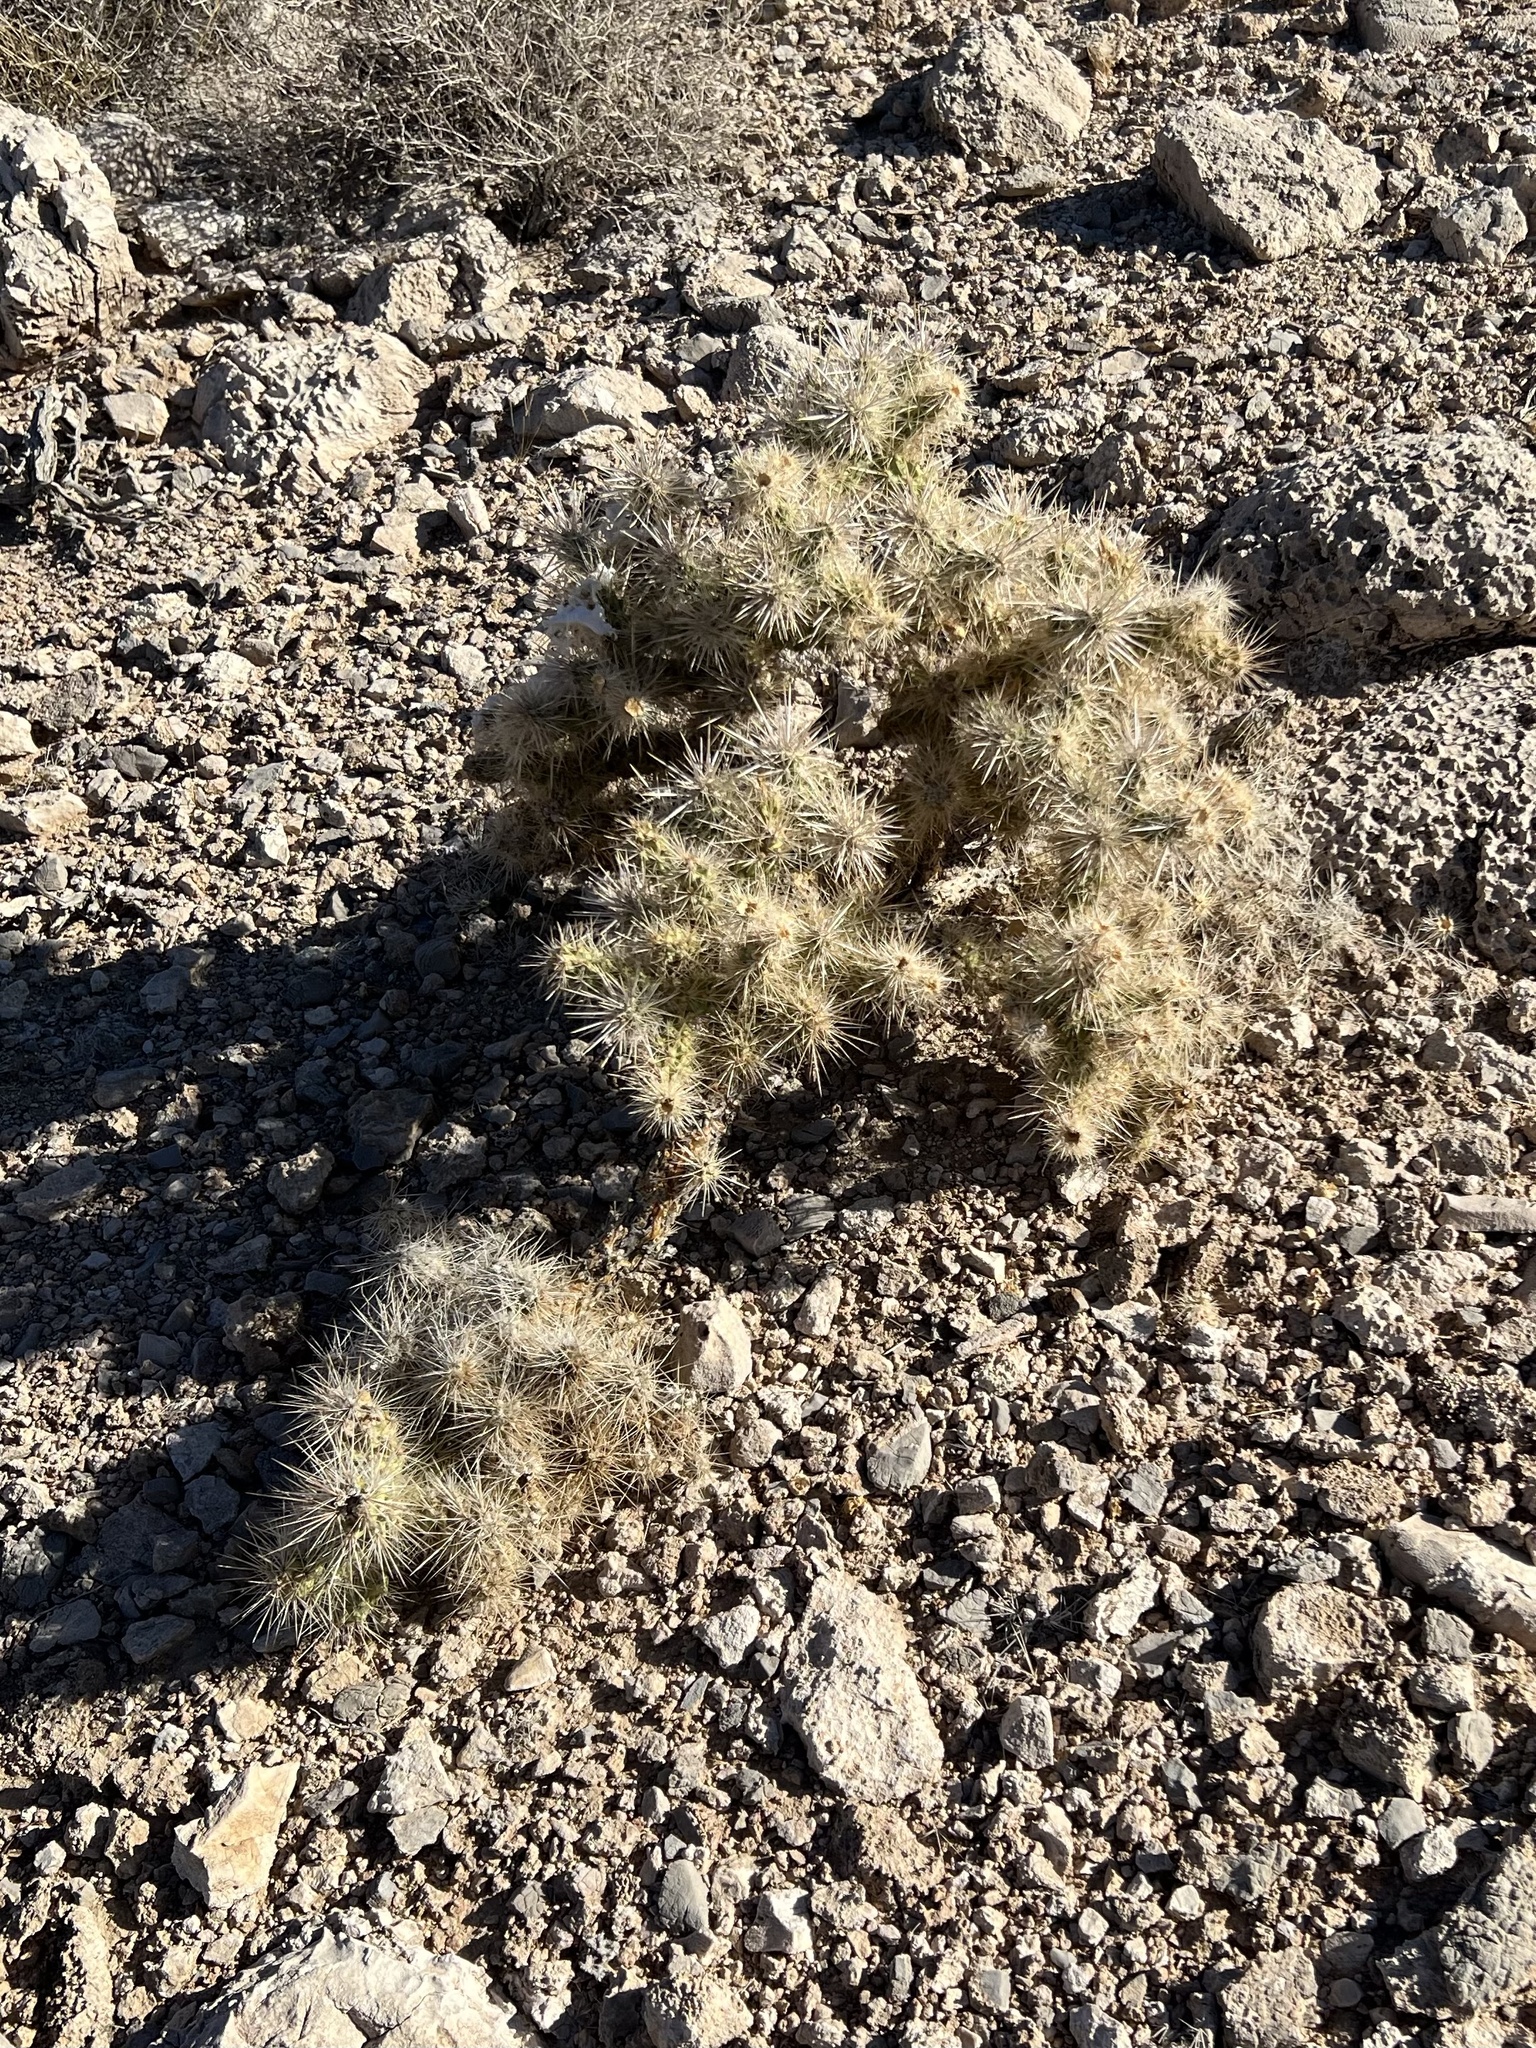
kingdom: Plantae
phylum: Tracheophyta
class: Magnoliopsida
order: Caryophyllales
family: Cactaceae
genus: Cylindropuntia
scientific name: Cylindropuntia echinocarpa
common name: Ground cholla
